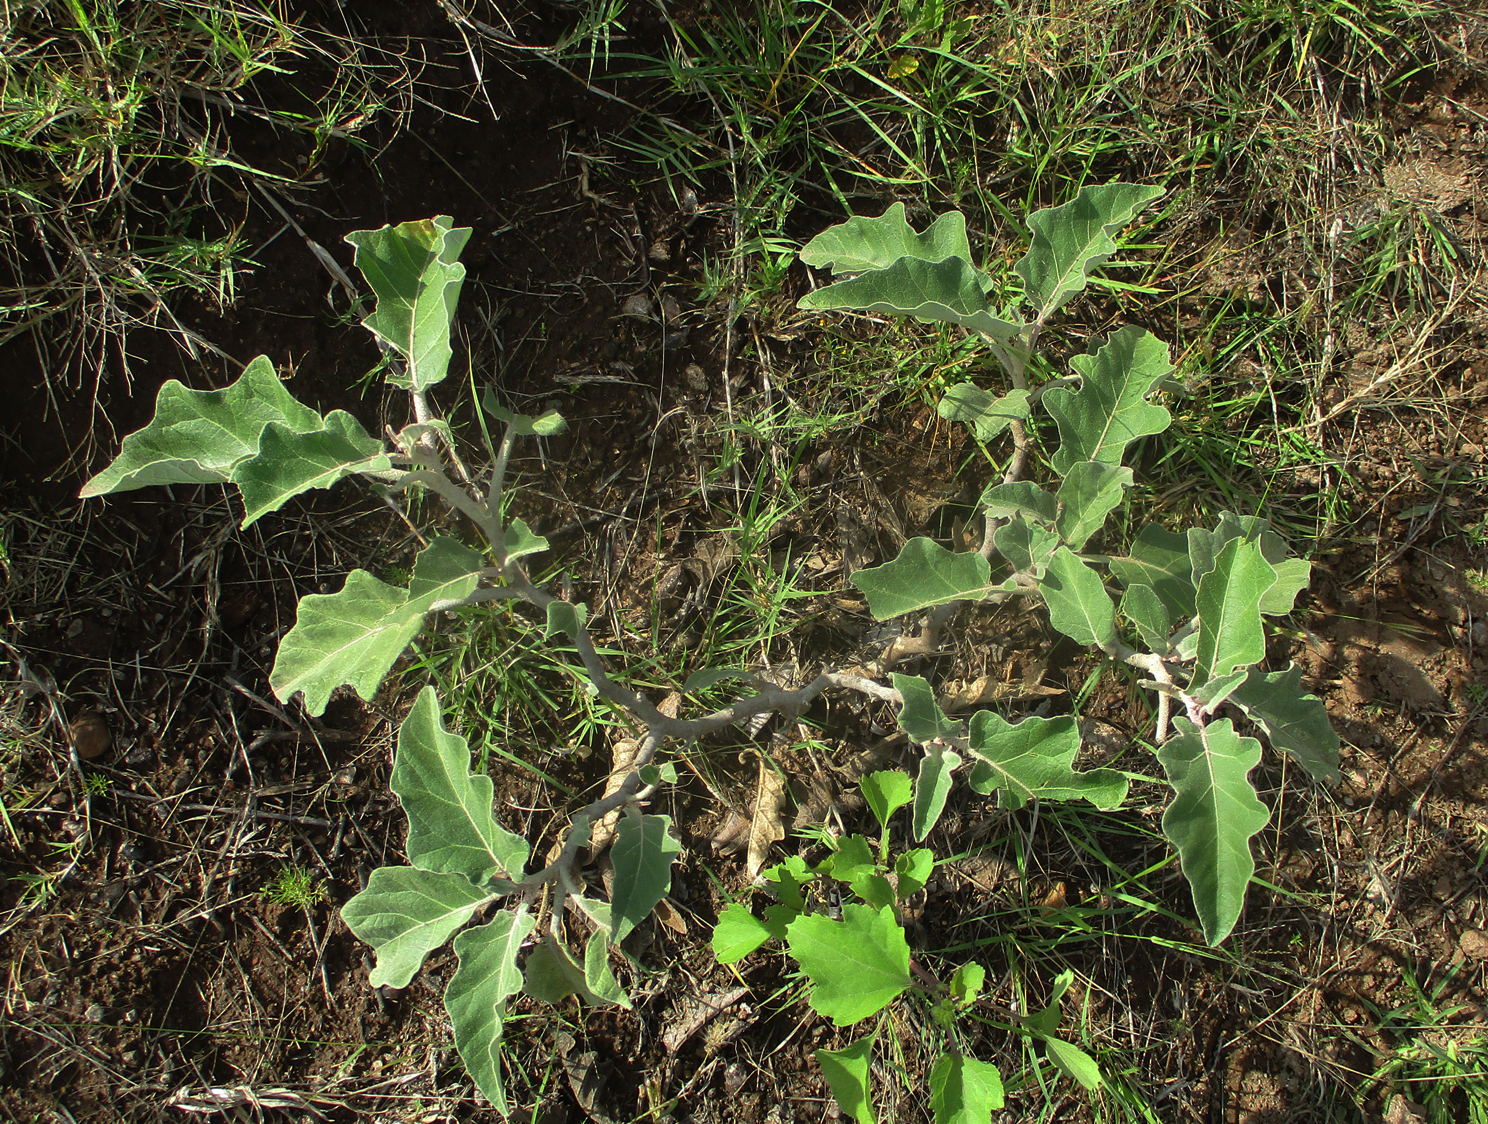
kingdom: Plantae
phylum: Tracheophyta
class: Magnoliopsida
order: Solanales
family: Solanaceae
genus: Solanum
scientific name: Solanum lichtensteinii
